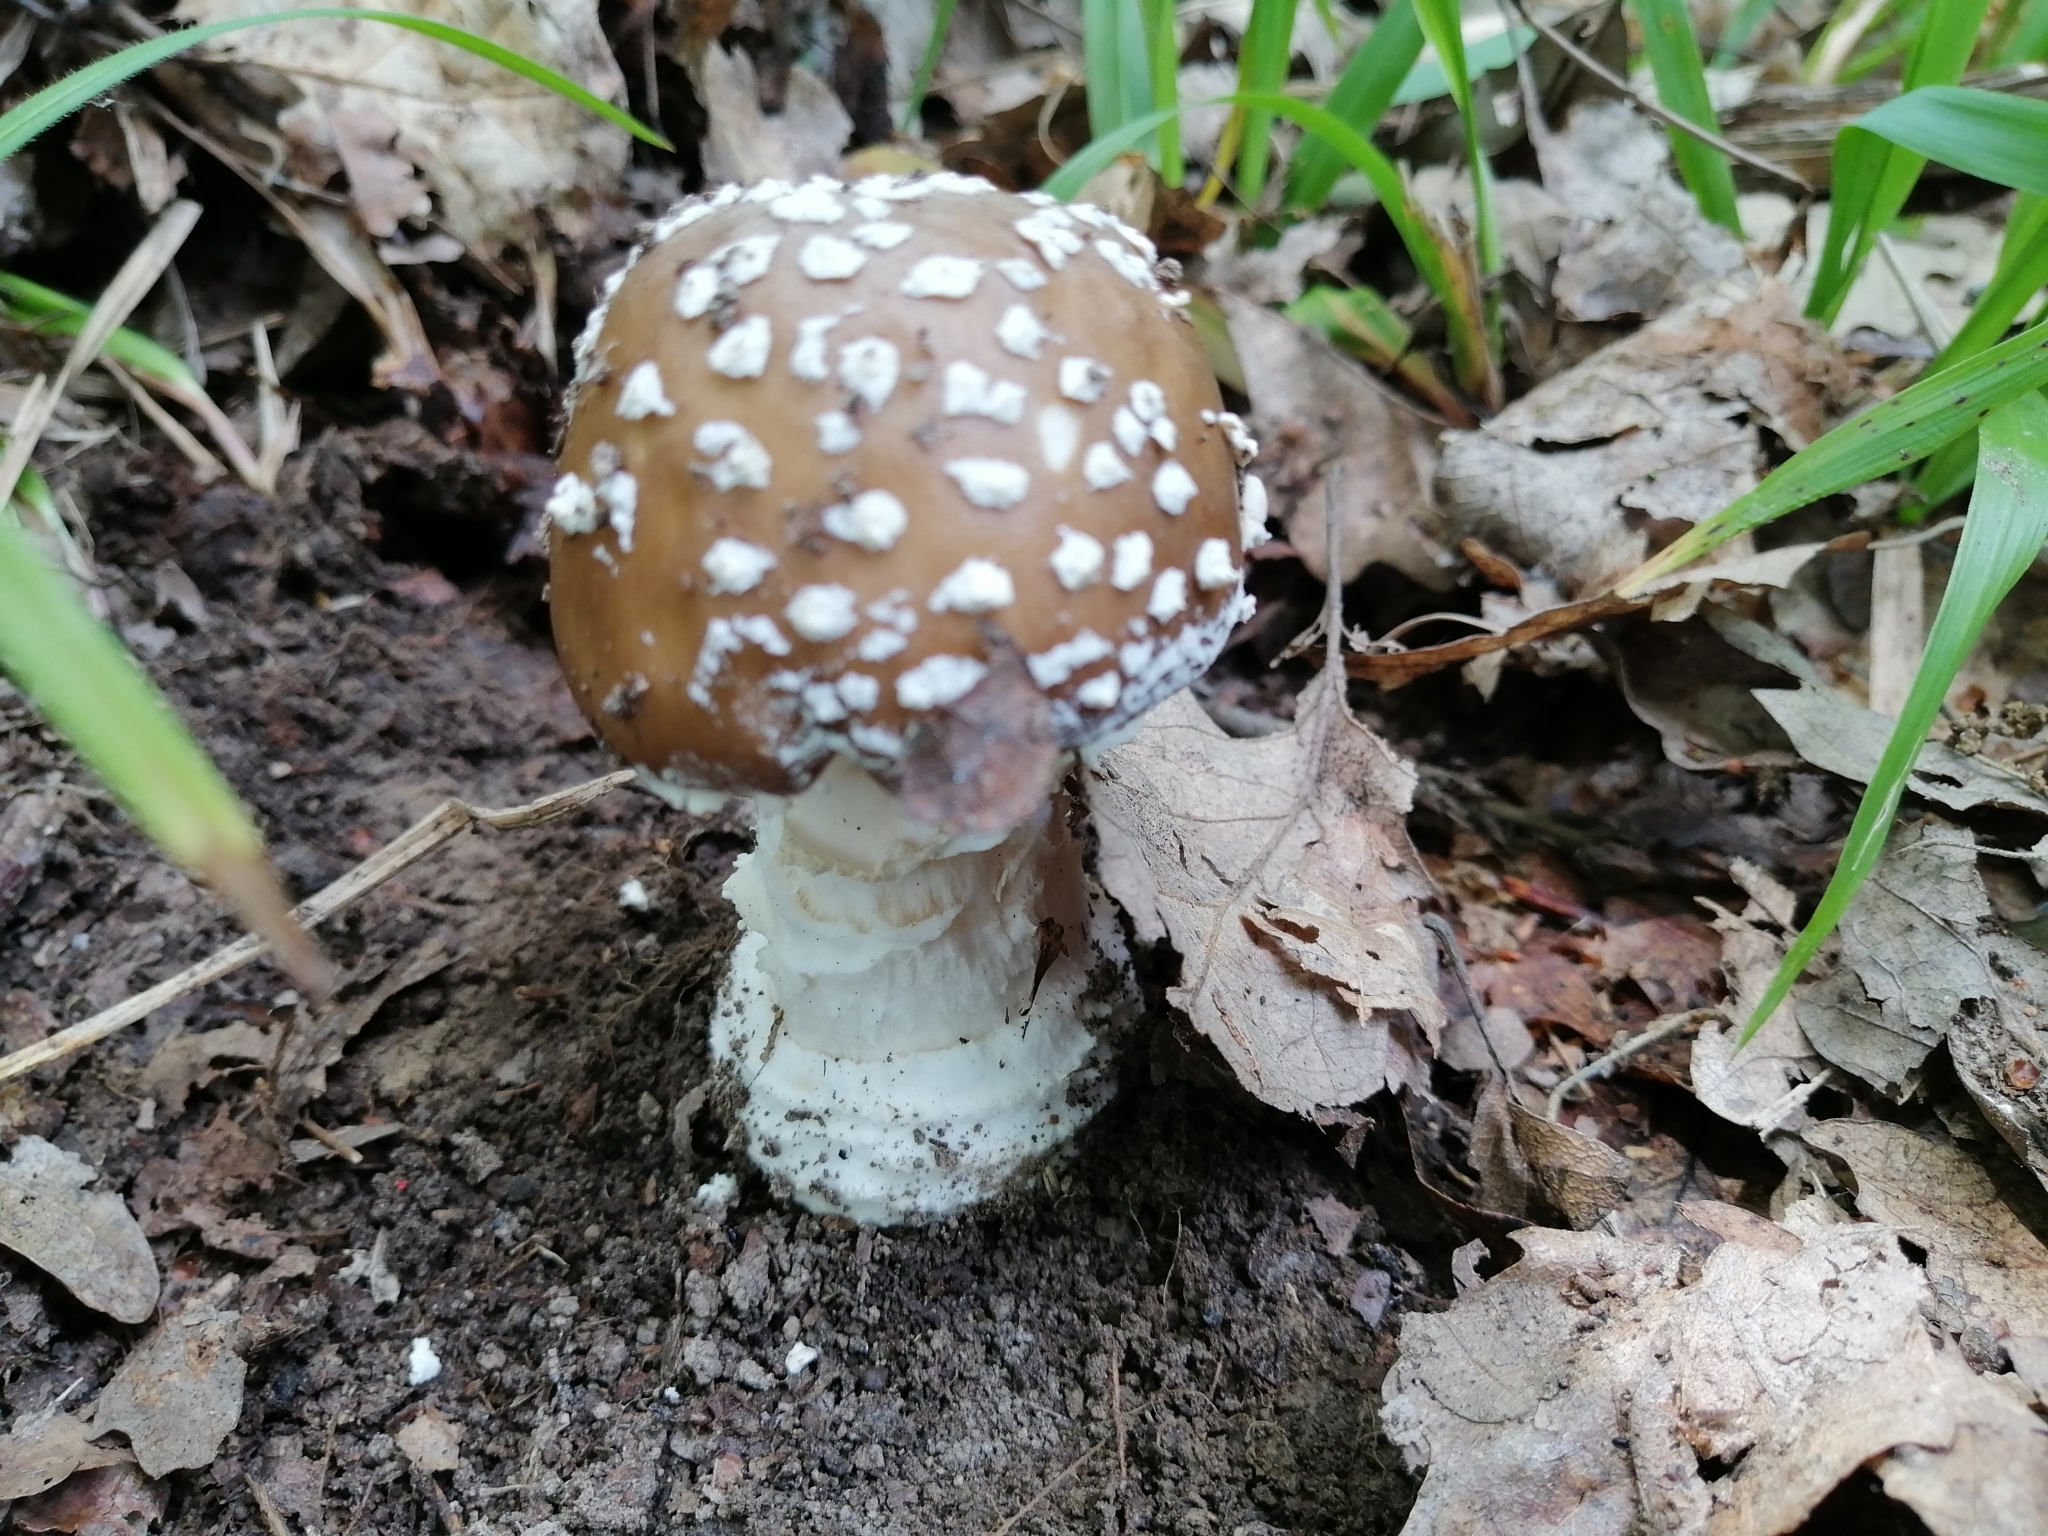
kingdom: Fungi
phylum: Basidiomycota
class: Agaricomycetes
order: Agaricales
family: Amanitaceae
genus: Amanita
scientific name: Amanita pantherina
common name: Panthercap
